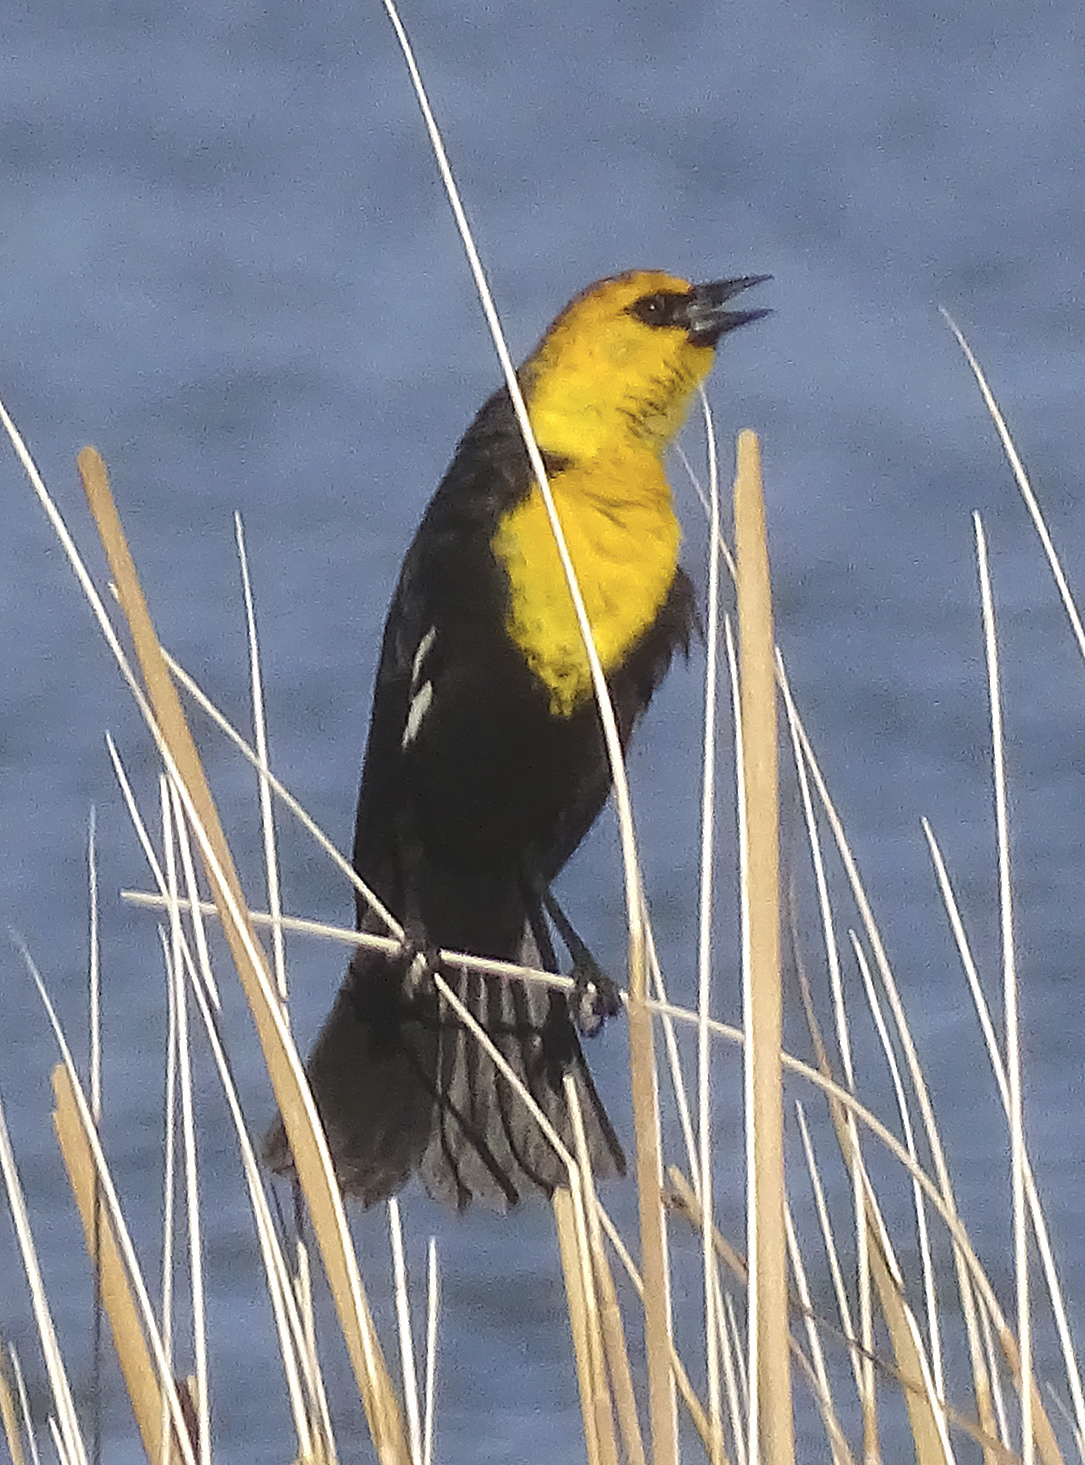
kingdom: Animalia
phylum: Chordata
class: Aves
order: Passeriformes
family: Icteridae
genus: Xanthocephalus
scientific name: Xanthocephalus xanthocephalus
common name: Yellow-headed blackbird
